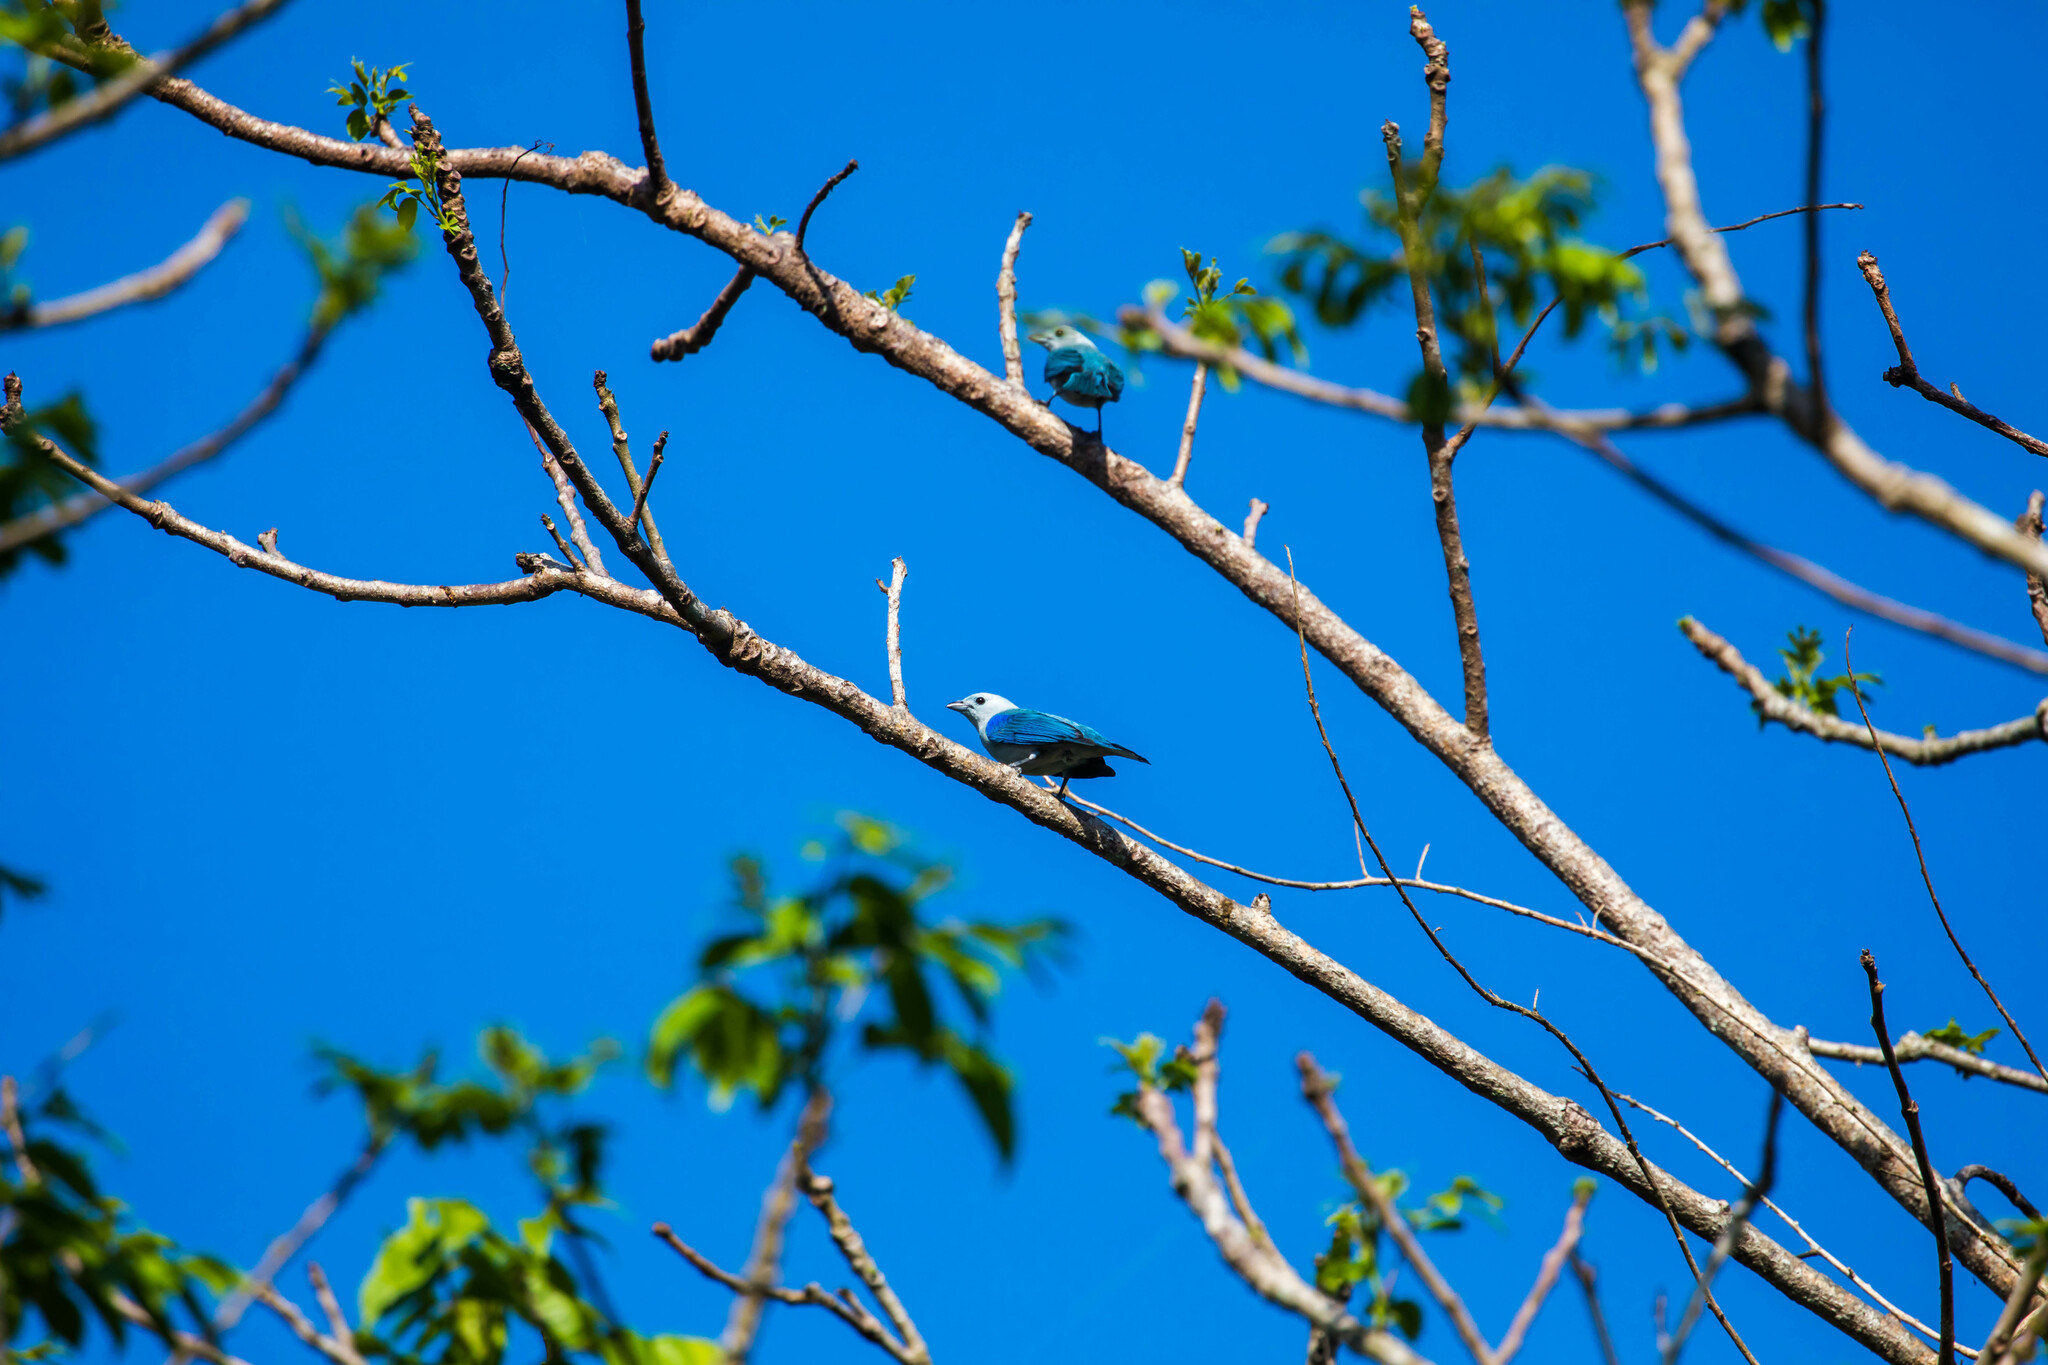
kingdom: Animalia
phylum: Chordata
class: Aves
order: Passeriformes
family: Thraupidae
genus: Thraupis
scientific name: Thraupis episcopus
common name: Blue-grey tanager
